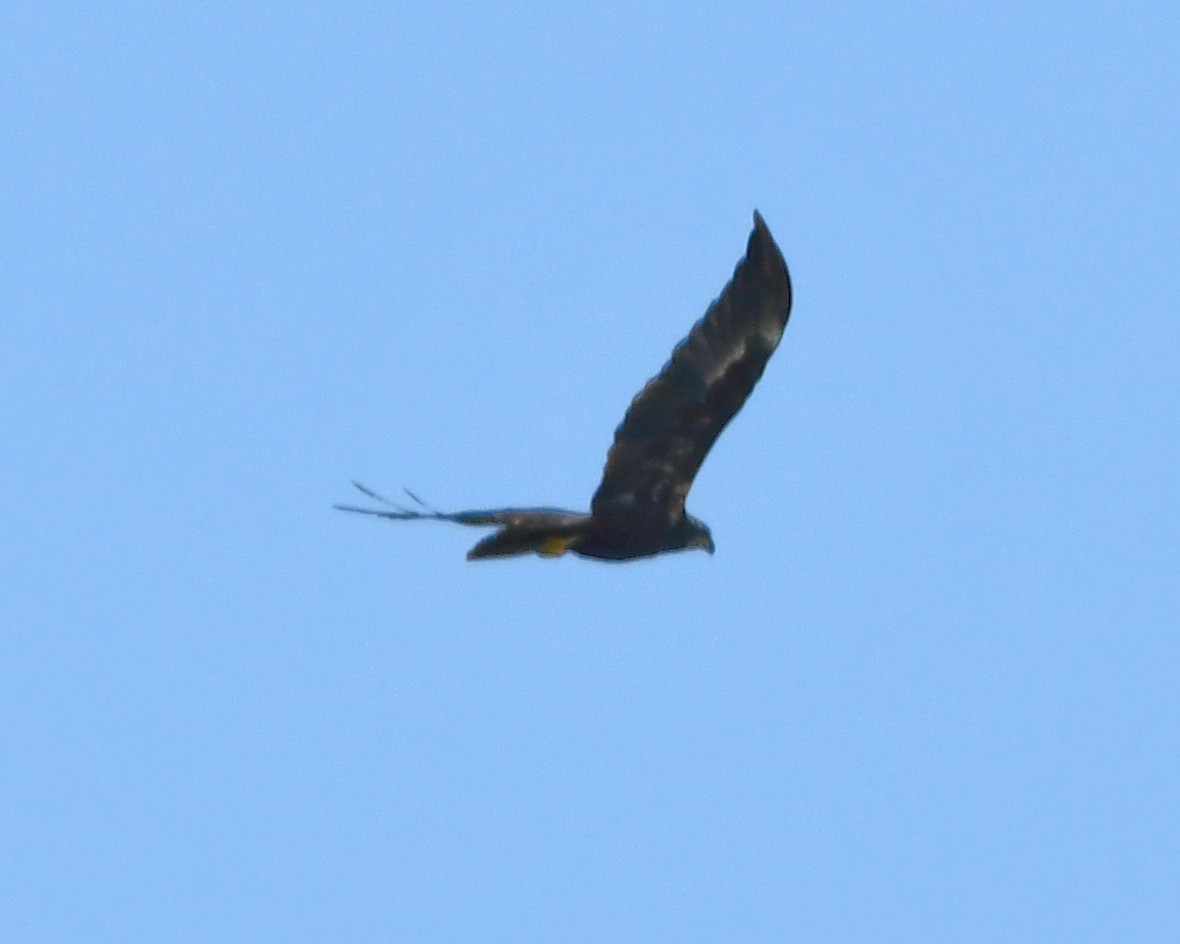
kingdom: Animalia
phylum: Chordata
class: Aves
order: Accipitriformes
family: Accipitridae
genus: Circus
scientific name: Circus aeruginosus
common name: Western marsh harrier
